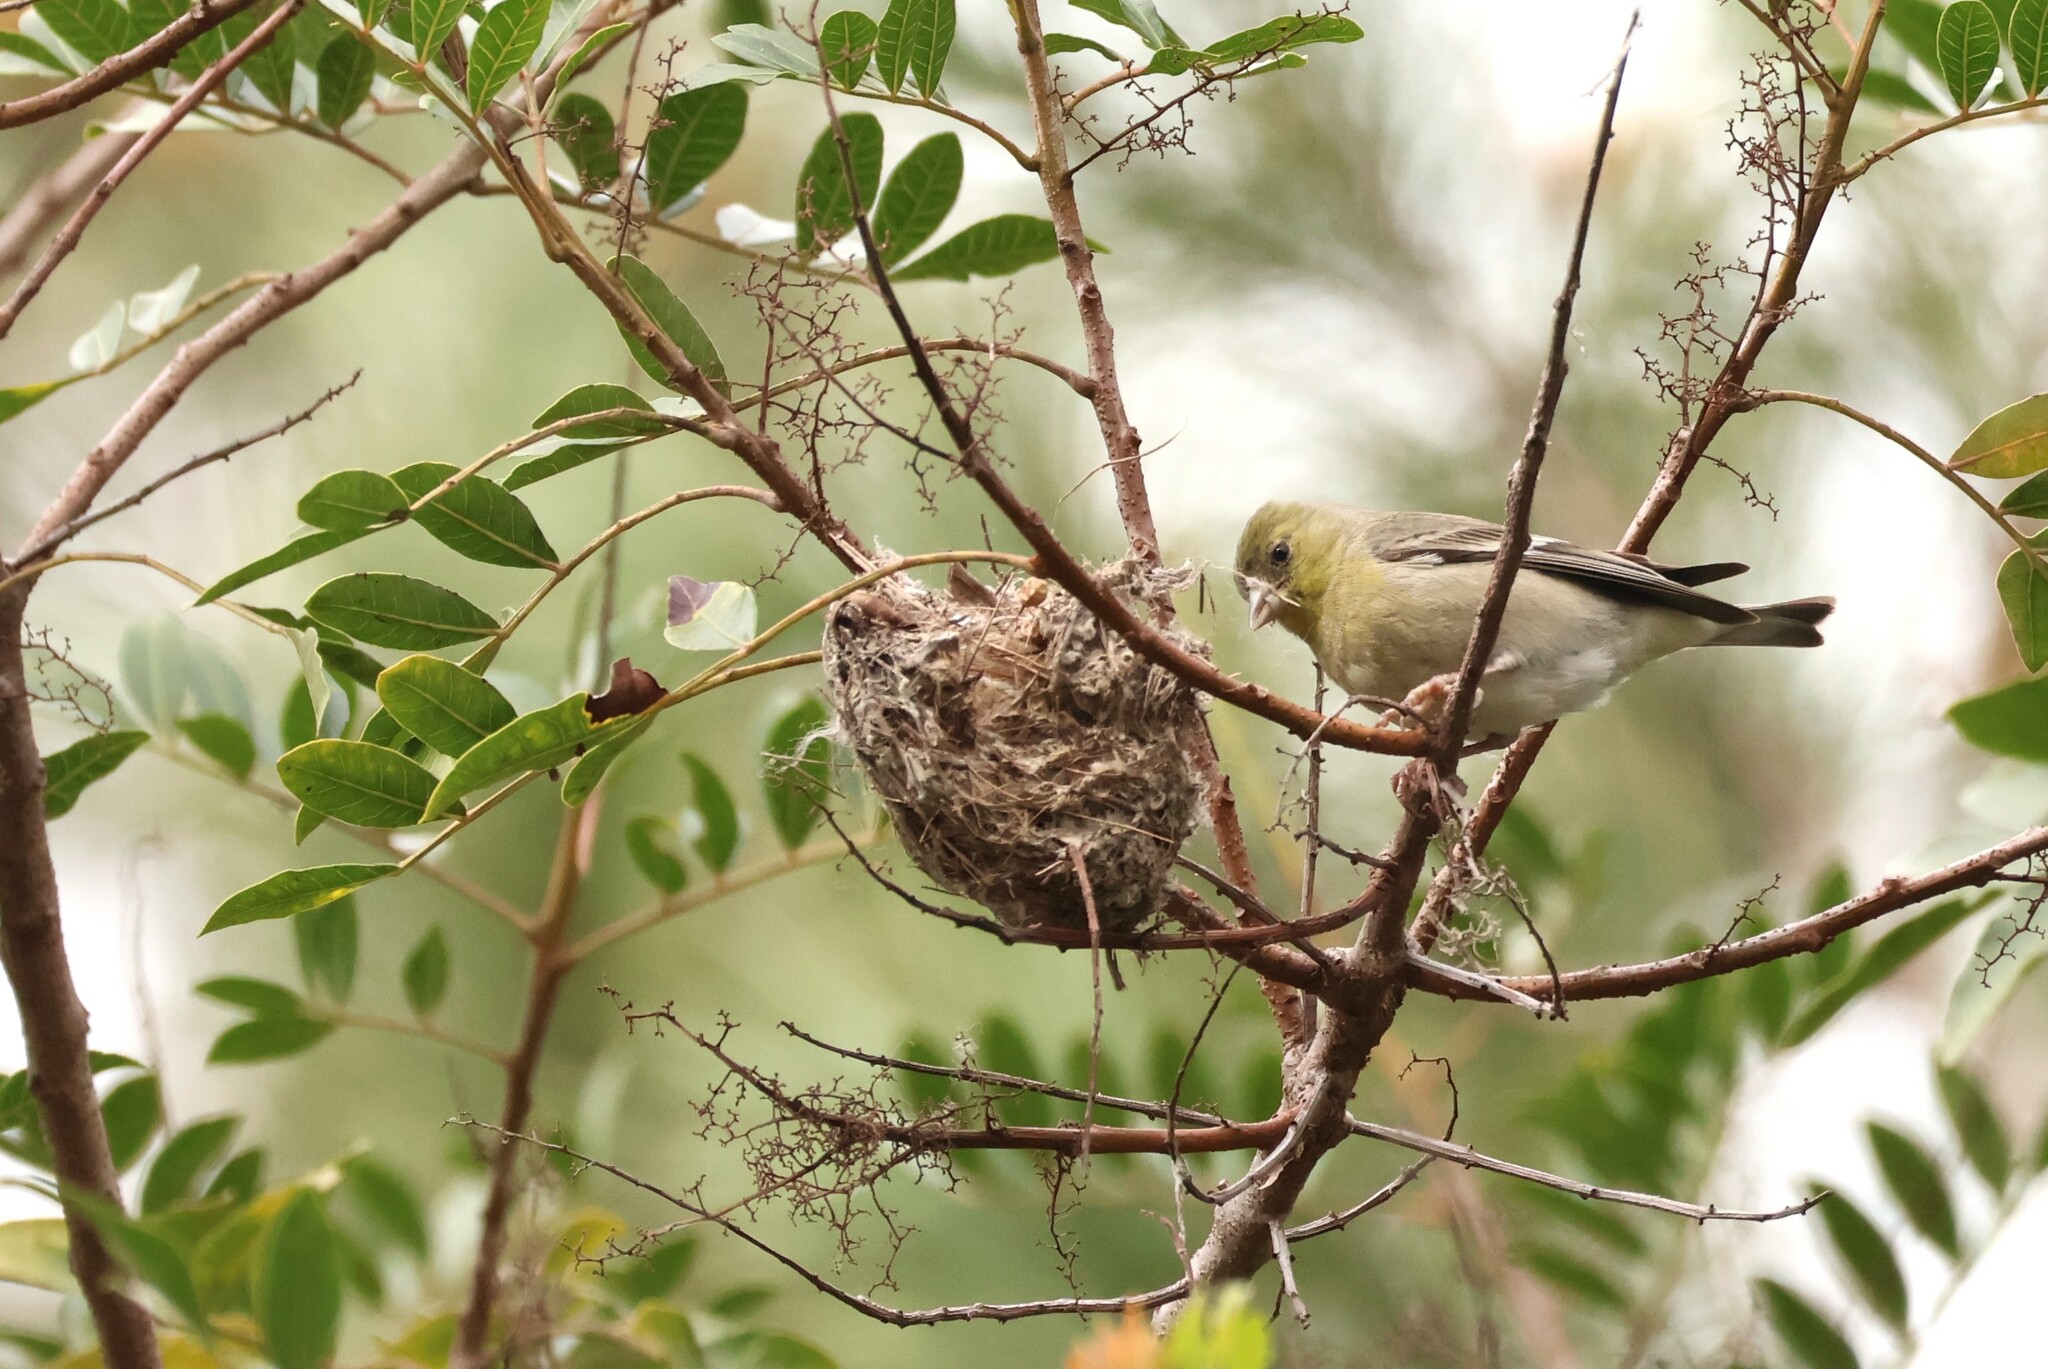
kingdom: Animalia
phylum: Chordata
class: Aves
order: Passeriformes
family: Fringillidae
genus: Spinus
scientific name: Spinus psaltria
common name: Lesser goldfinch
